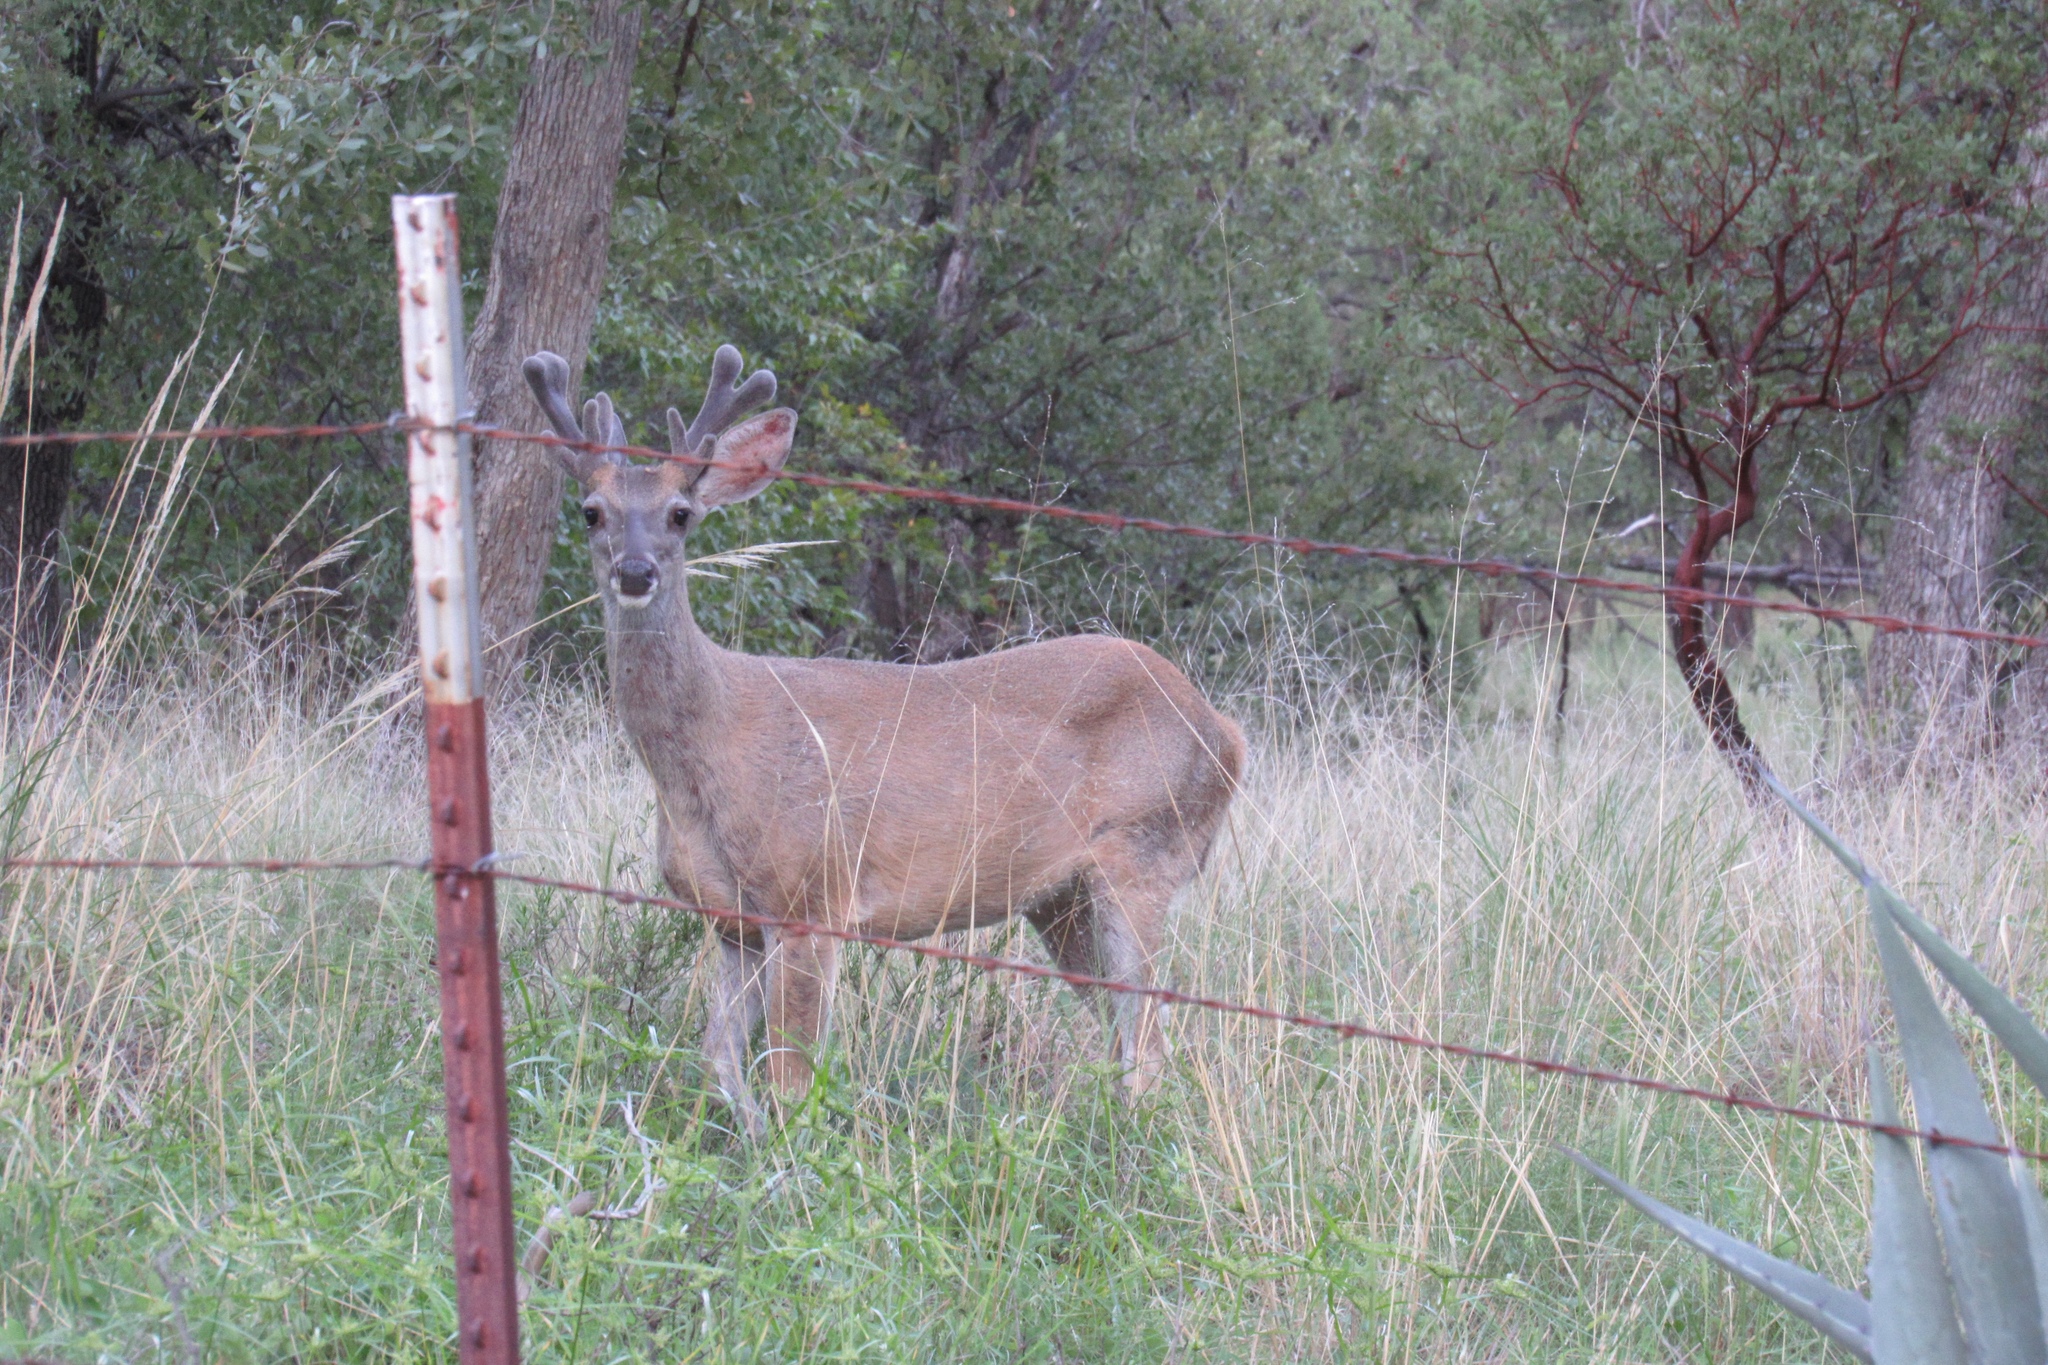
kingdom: Animalia
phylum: Chordata
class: Mammalia
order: Artiodactyla
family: Cervidae
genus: Odocoileus
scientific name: Odocoileus virginianus
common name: White-tailed deer
